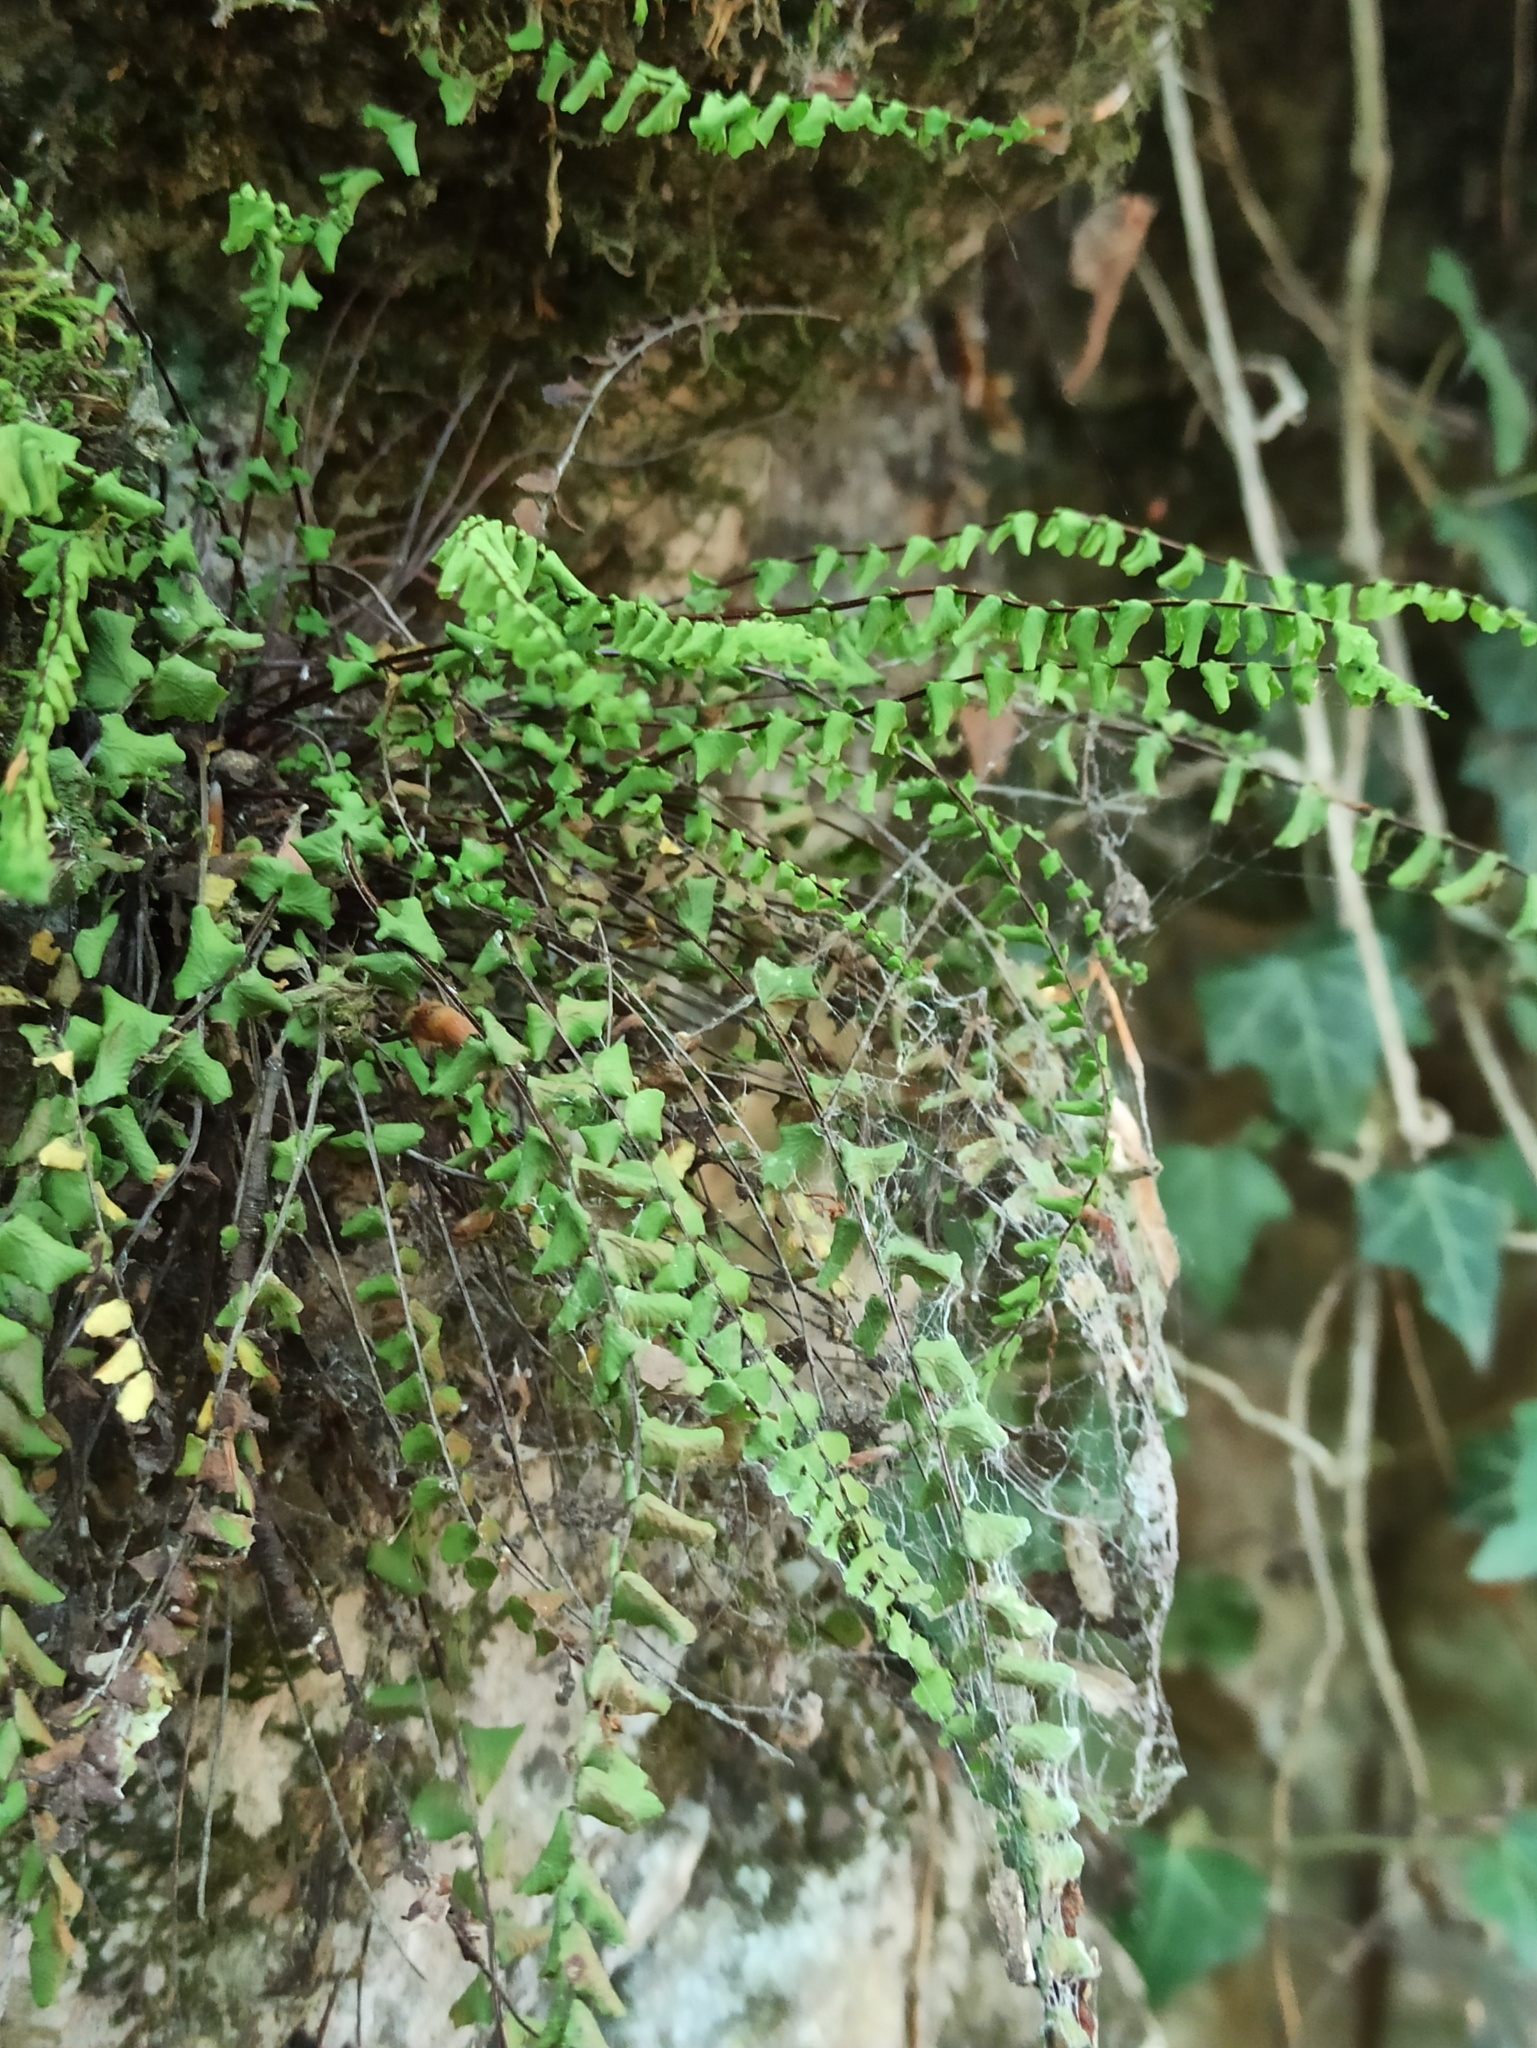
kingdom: Plantae
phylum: Tracheophyta
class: Polypodiopsida
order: Polypodiales
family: Aspleniaceae
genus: Asplenium
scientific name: Asplenium trichomanes
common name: Maidenhair spleenwort
